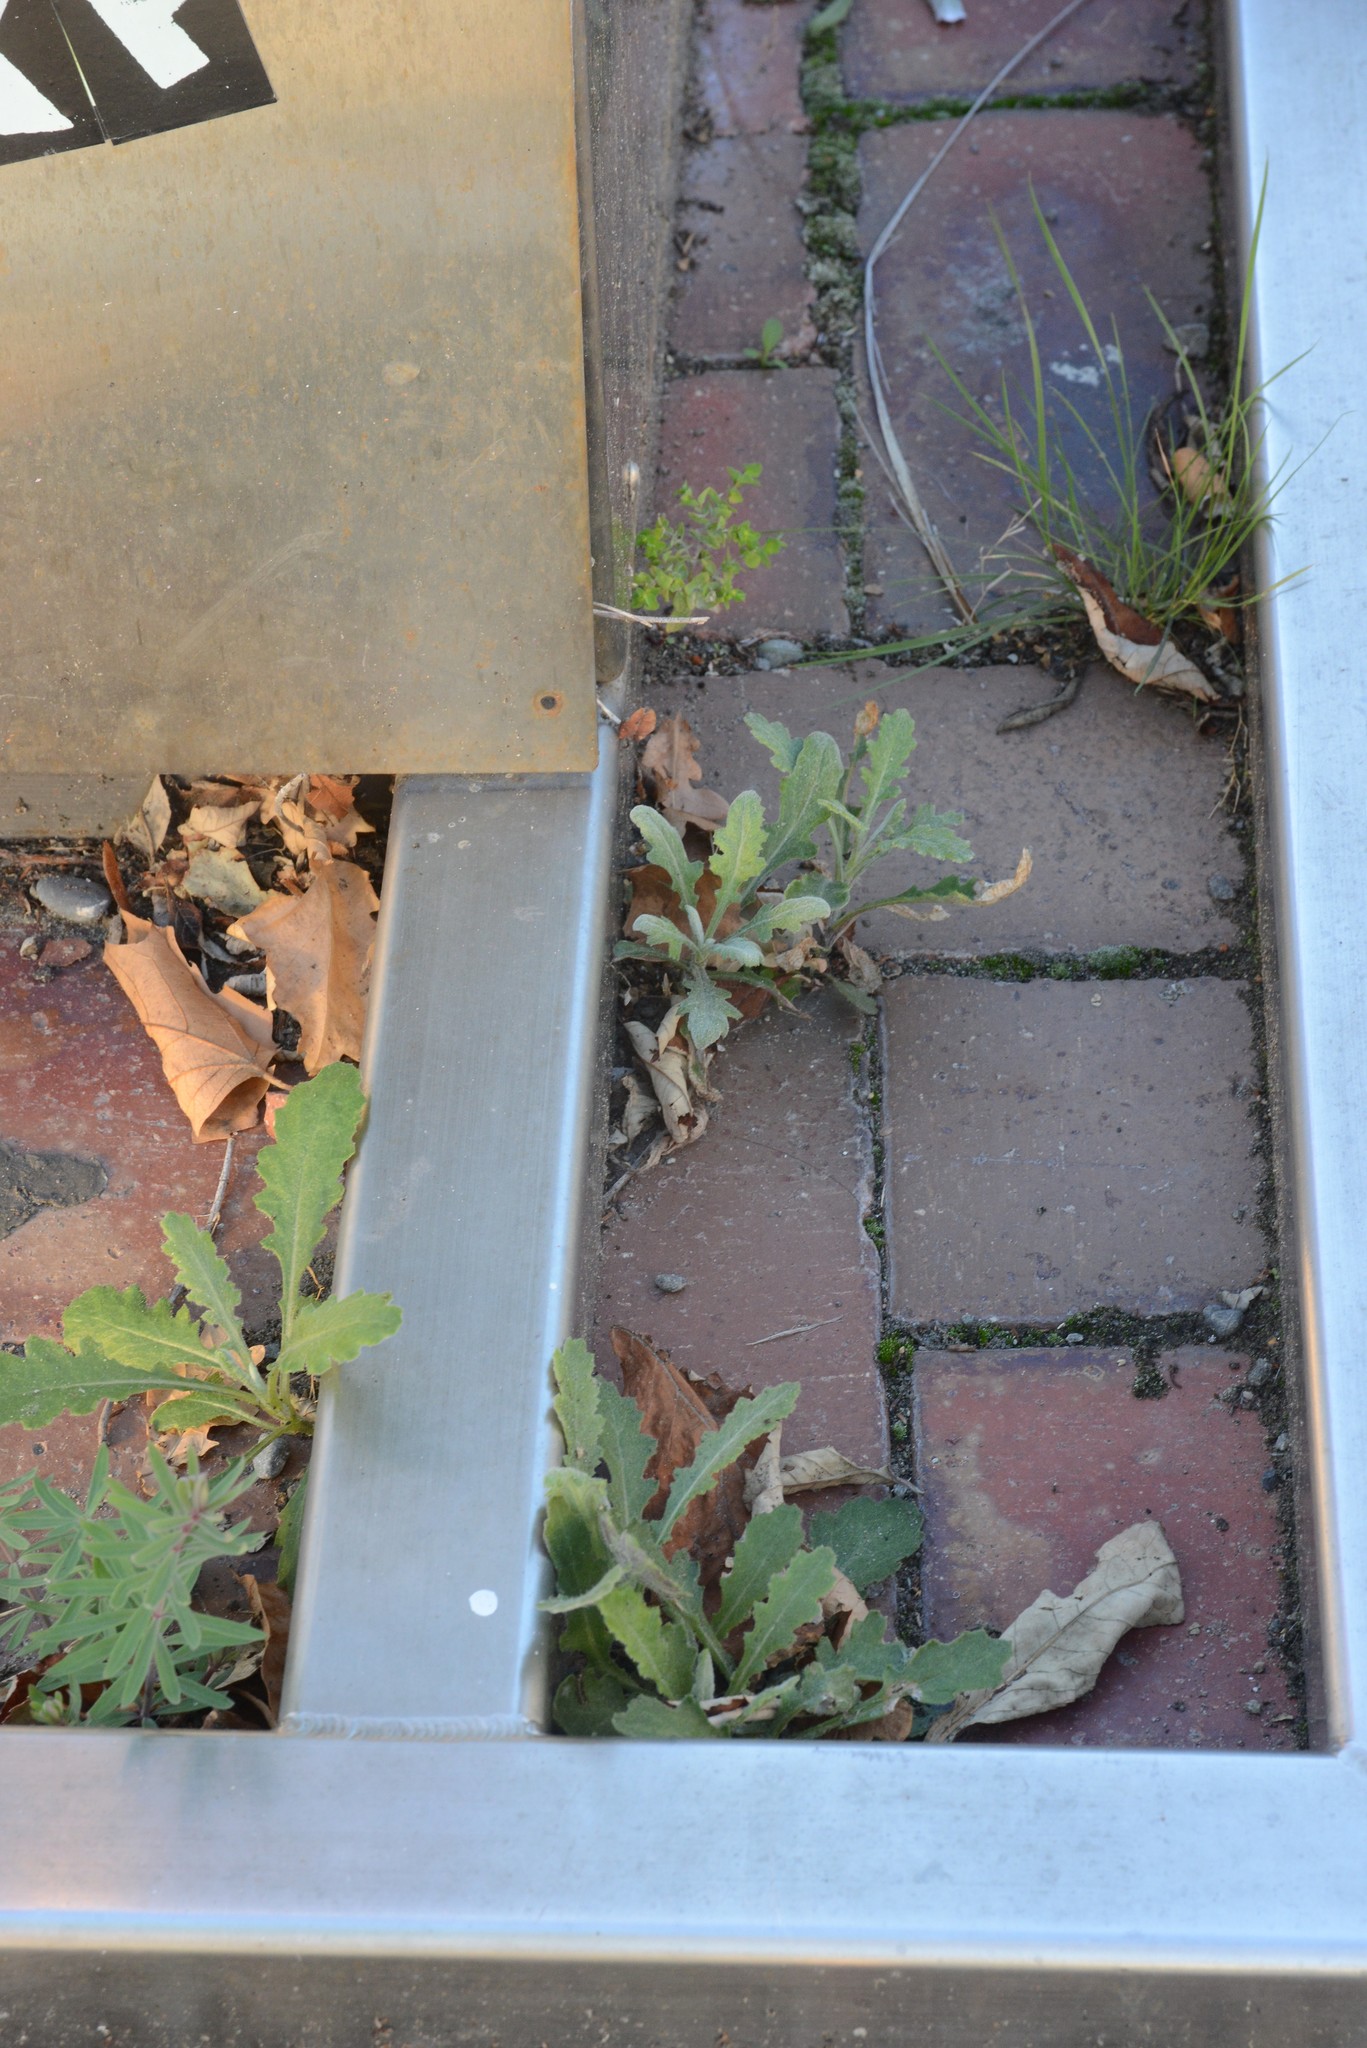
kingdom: Plantae
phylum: Tracheophyta
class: Magnoliopsida
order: Asterales
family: Asteraceae
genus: Senecio
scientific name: Senecio glomeratus
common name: Cutleaf burnweed
